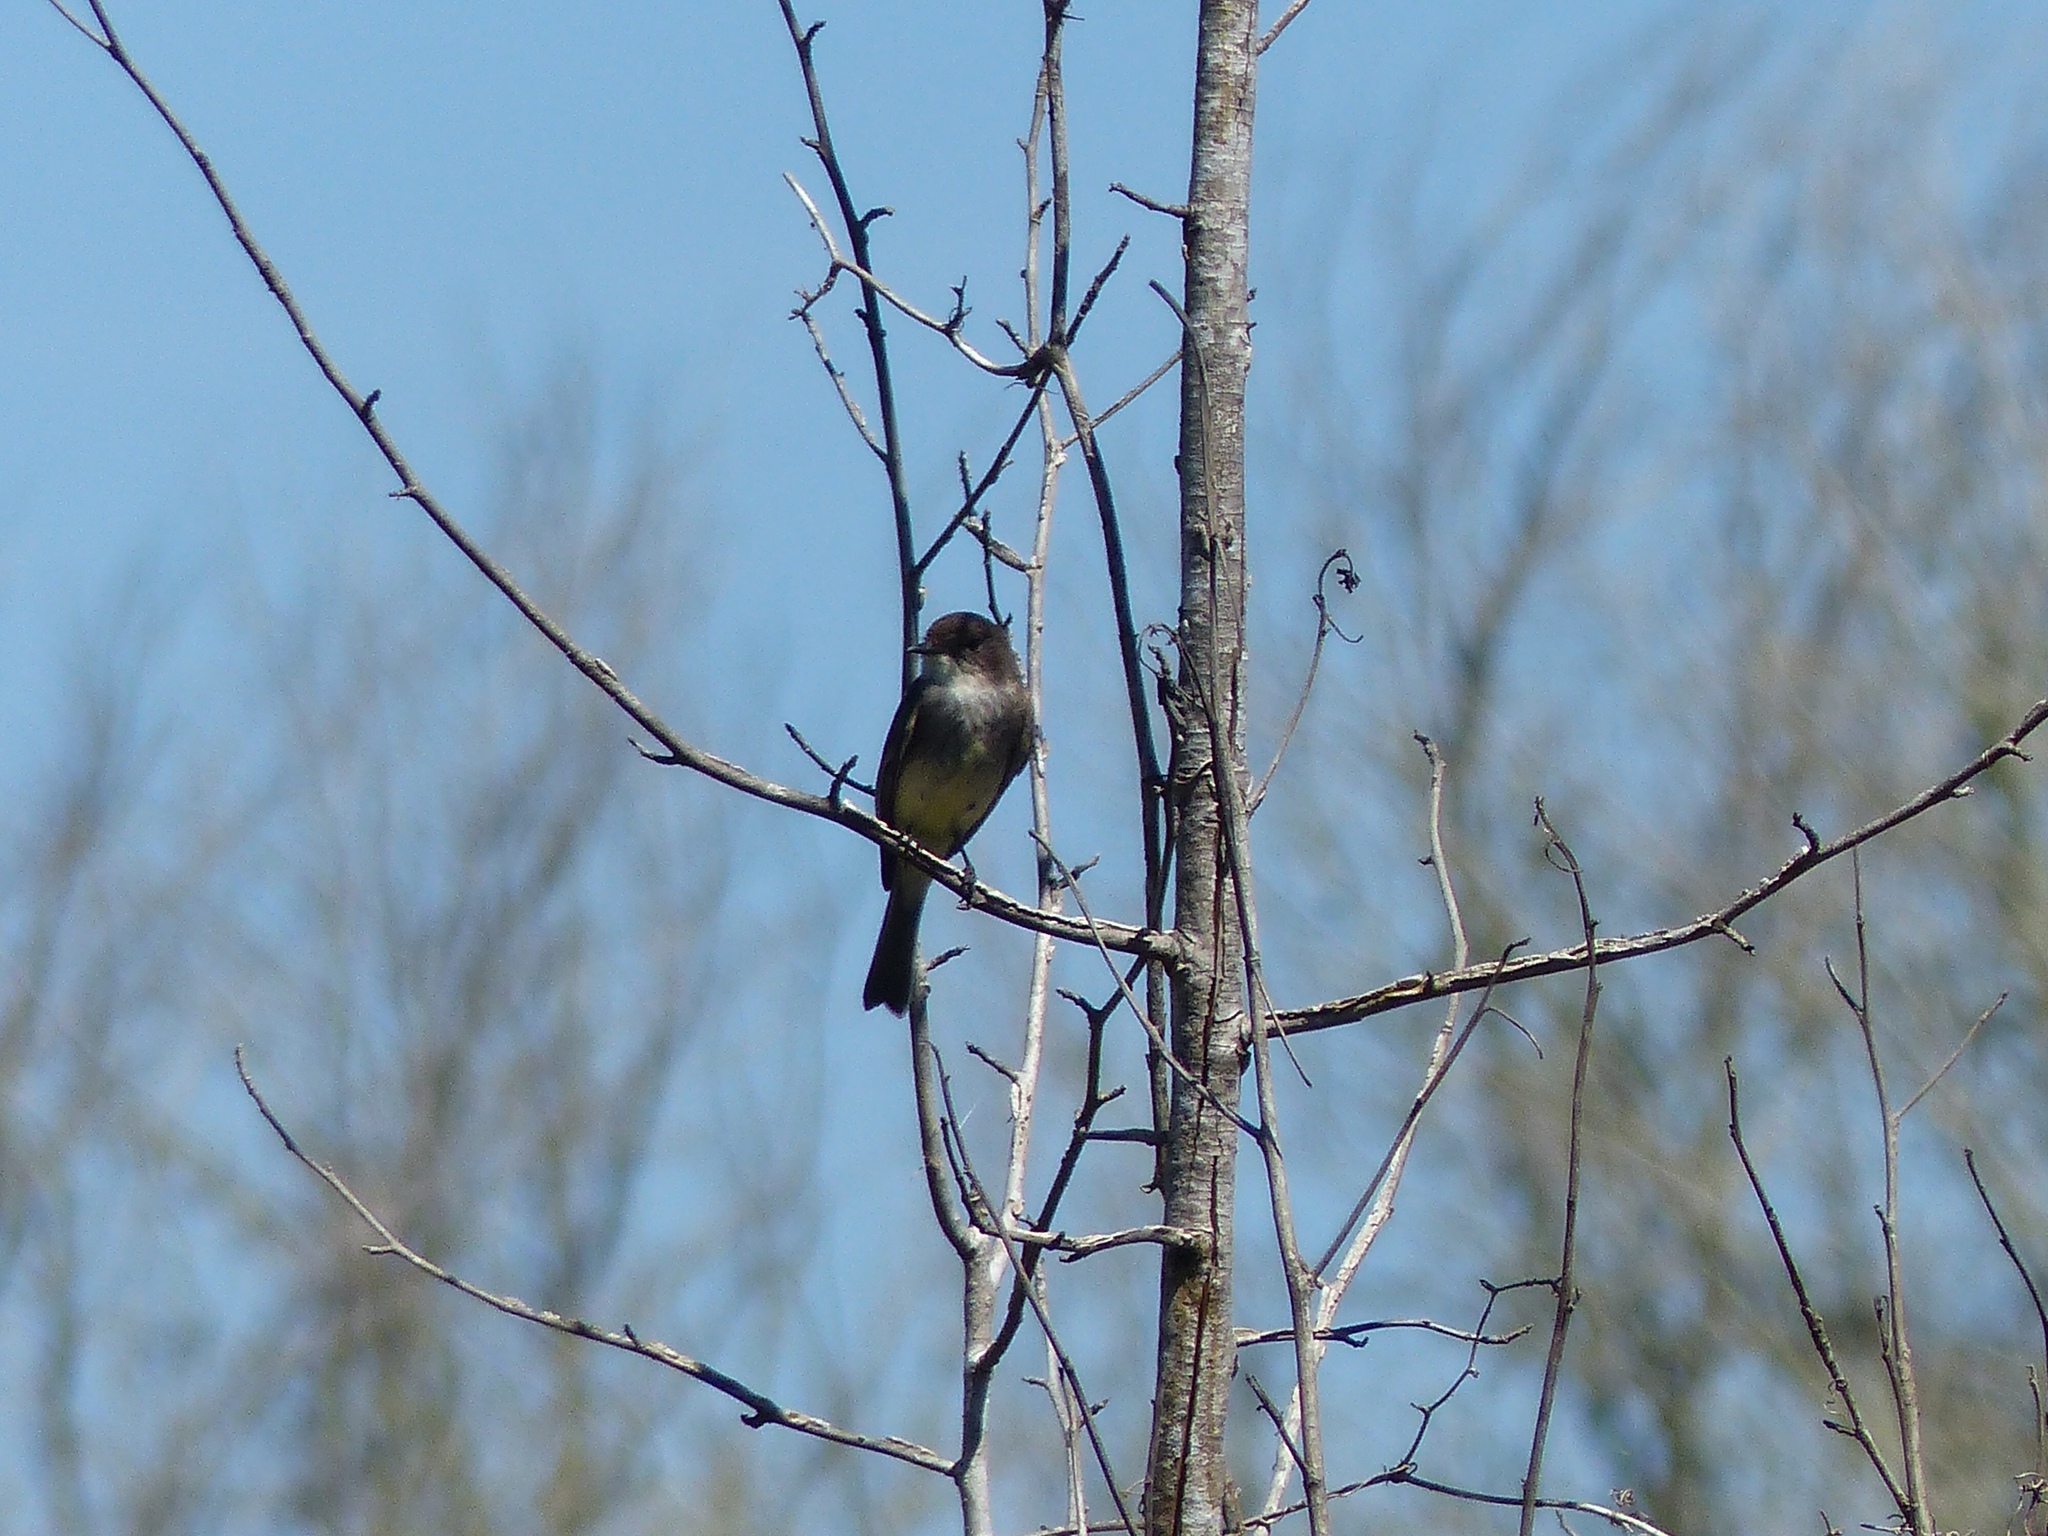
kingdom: Animalia
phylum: Chordata
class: Aves
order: Passeriformes
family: Tyrannidae
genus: Sayornis
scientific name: Sayornis phoebe
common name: Eastern phoebe
